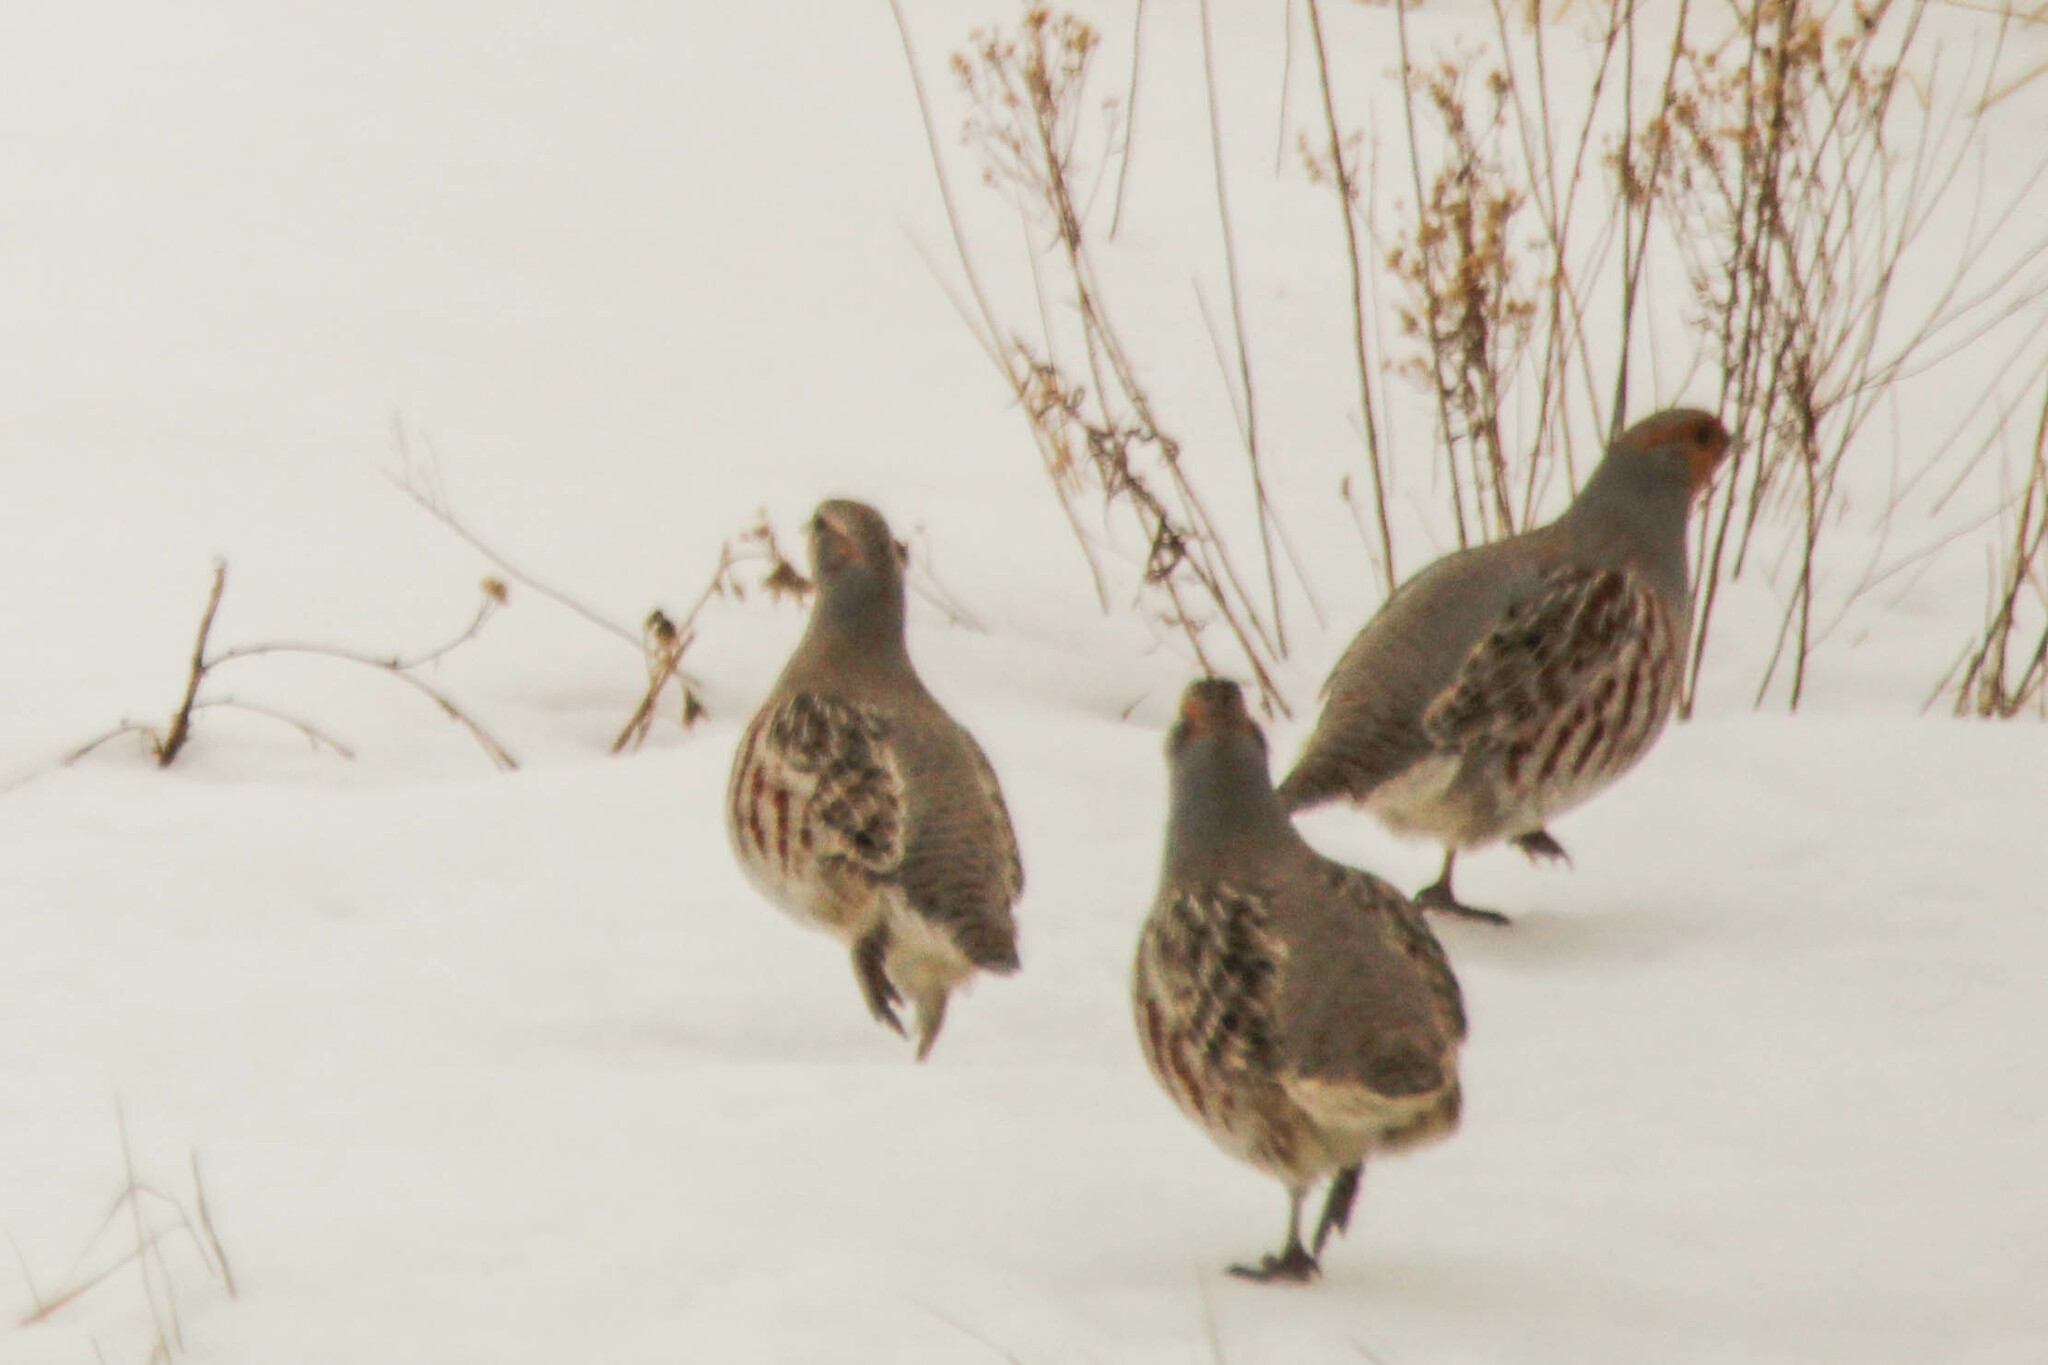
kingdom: Animalia
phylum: Chordata
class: Aves
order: Galliformes
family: Phasianidae
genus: Perdix
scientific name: Perdix perdix
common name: Grey partridge
